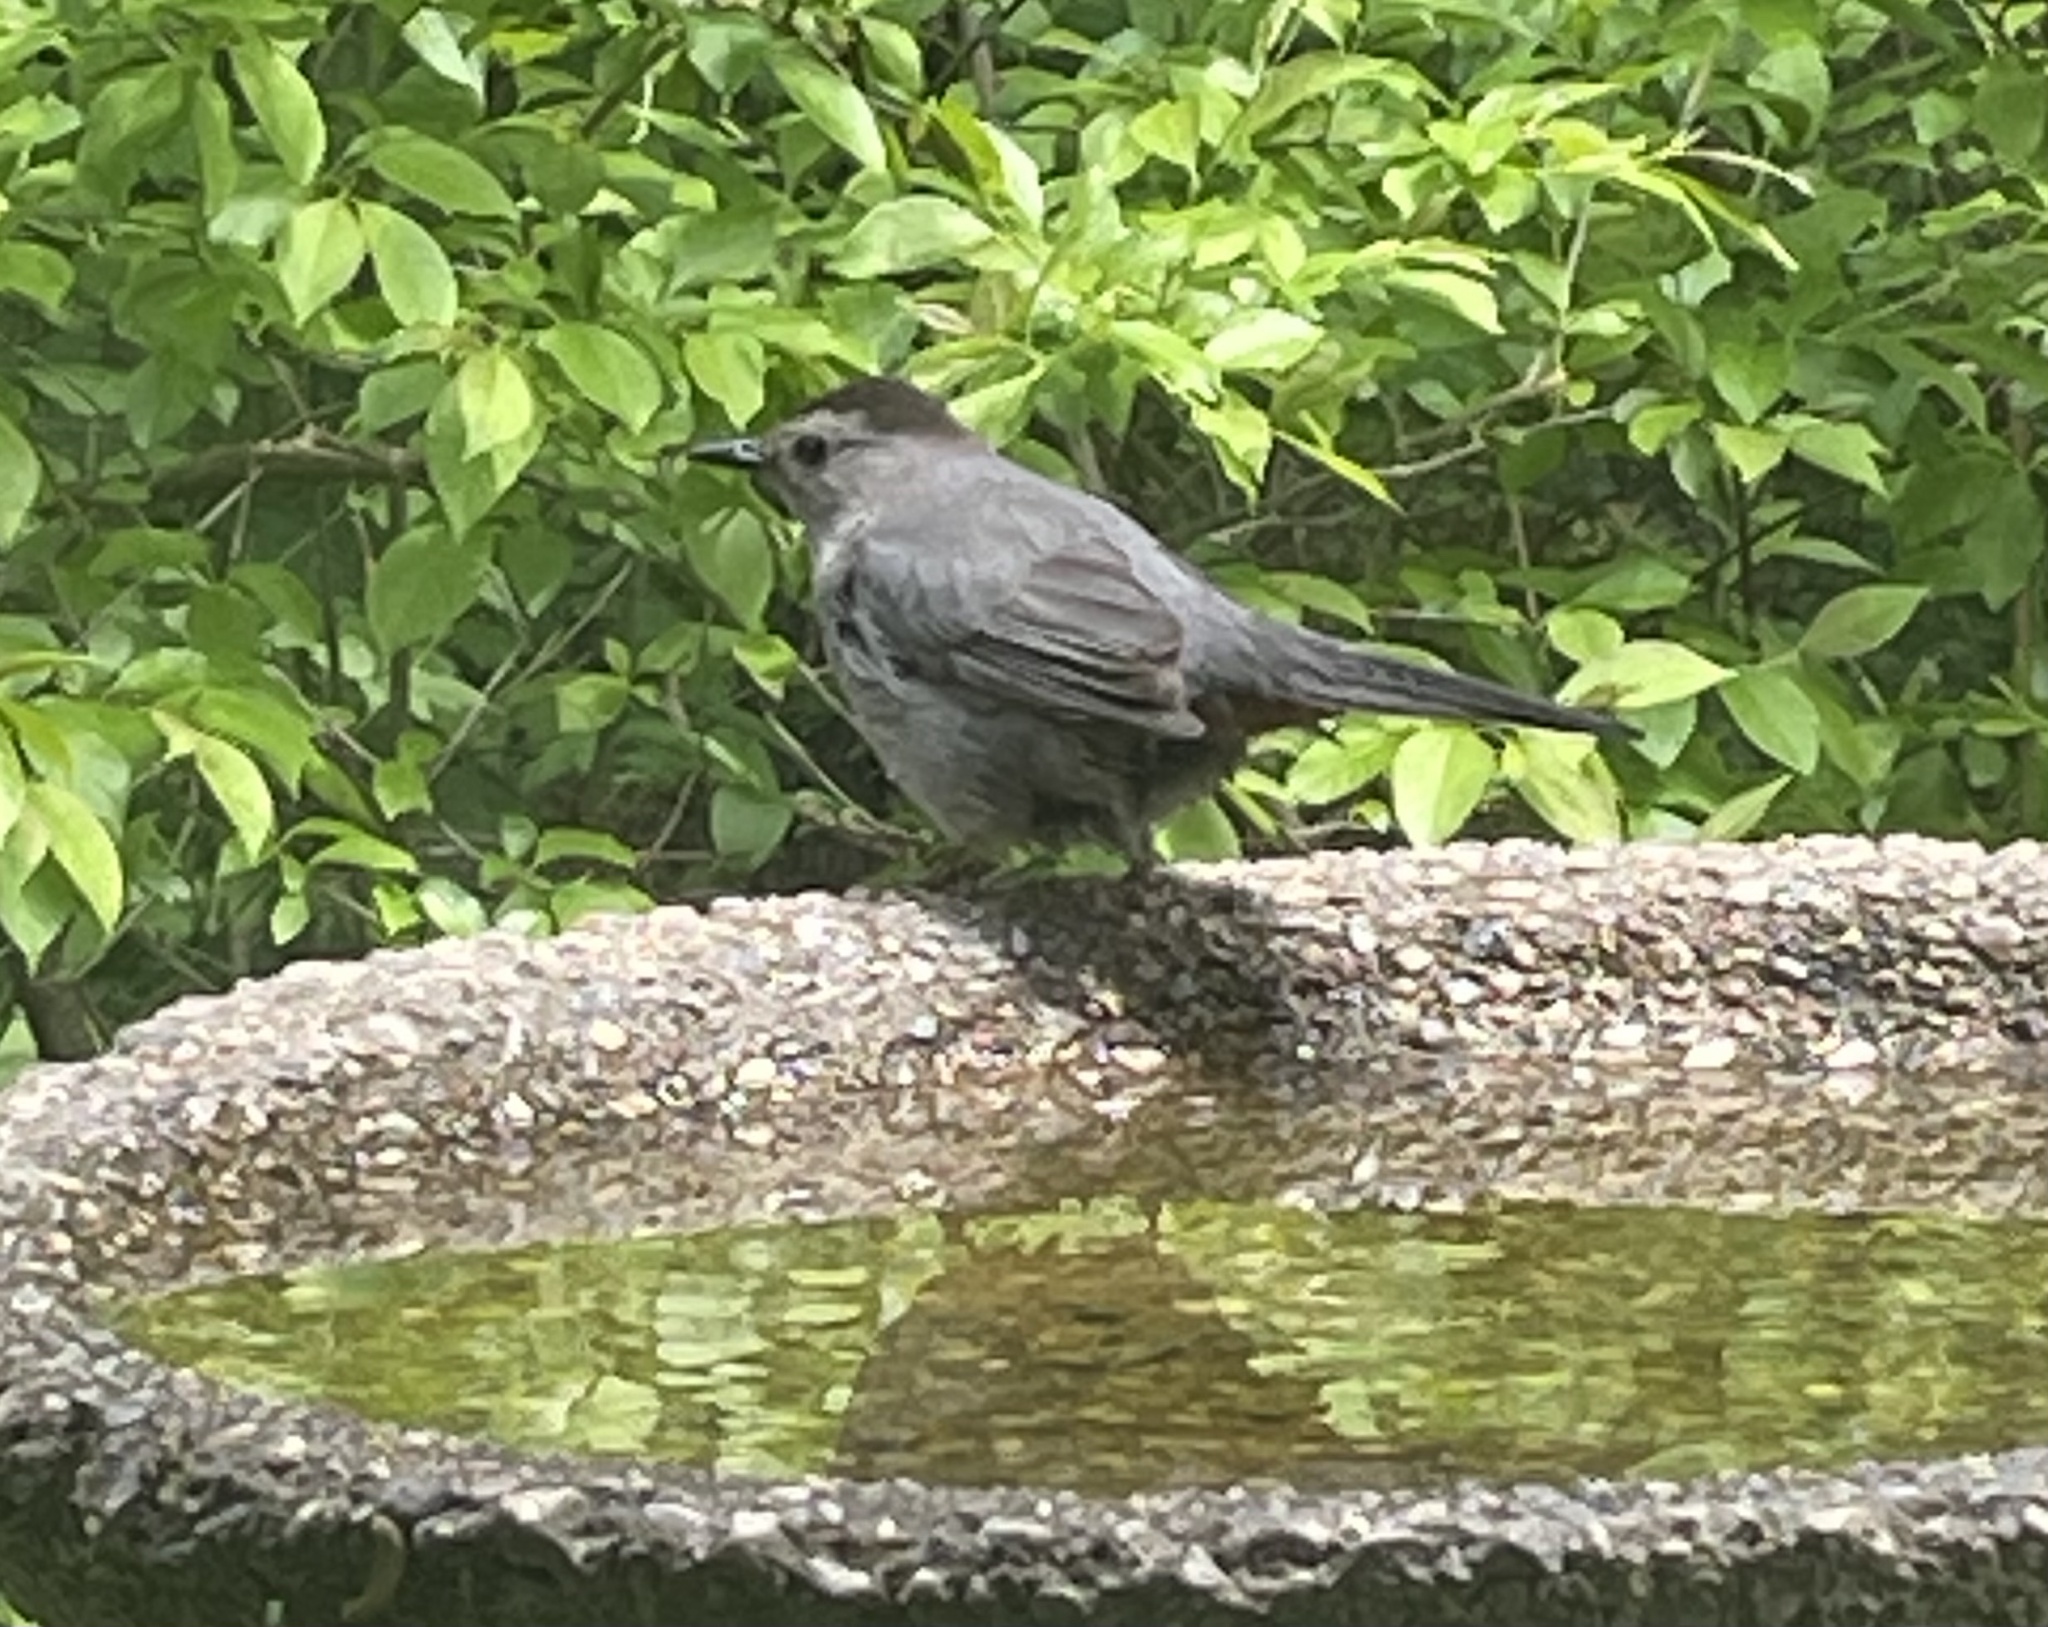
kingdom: Animalia
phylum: Chordata
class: Aves
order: Passeriformes
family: Mimidae
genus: Dumetella
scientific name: Dumetella carolinensis
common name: Gray catbird
